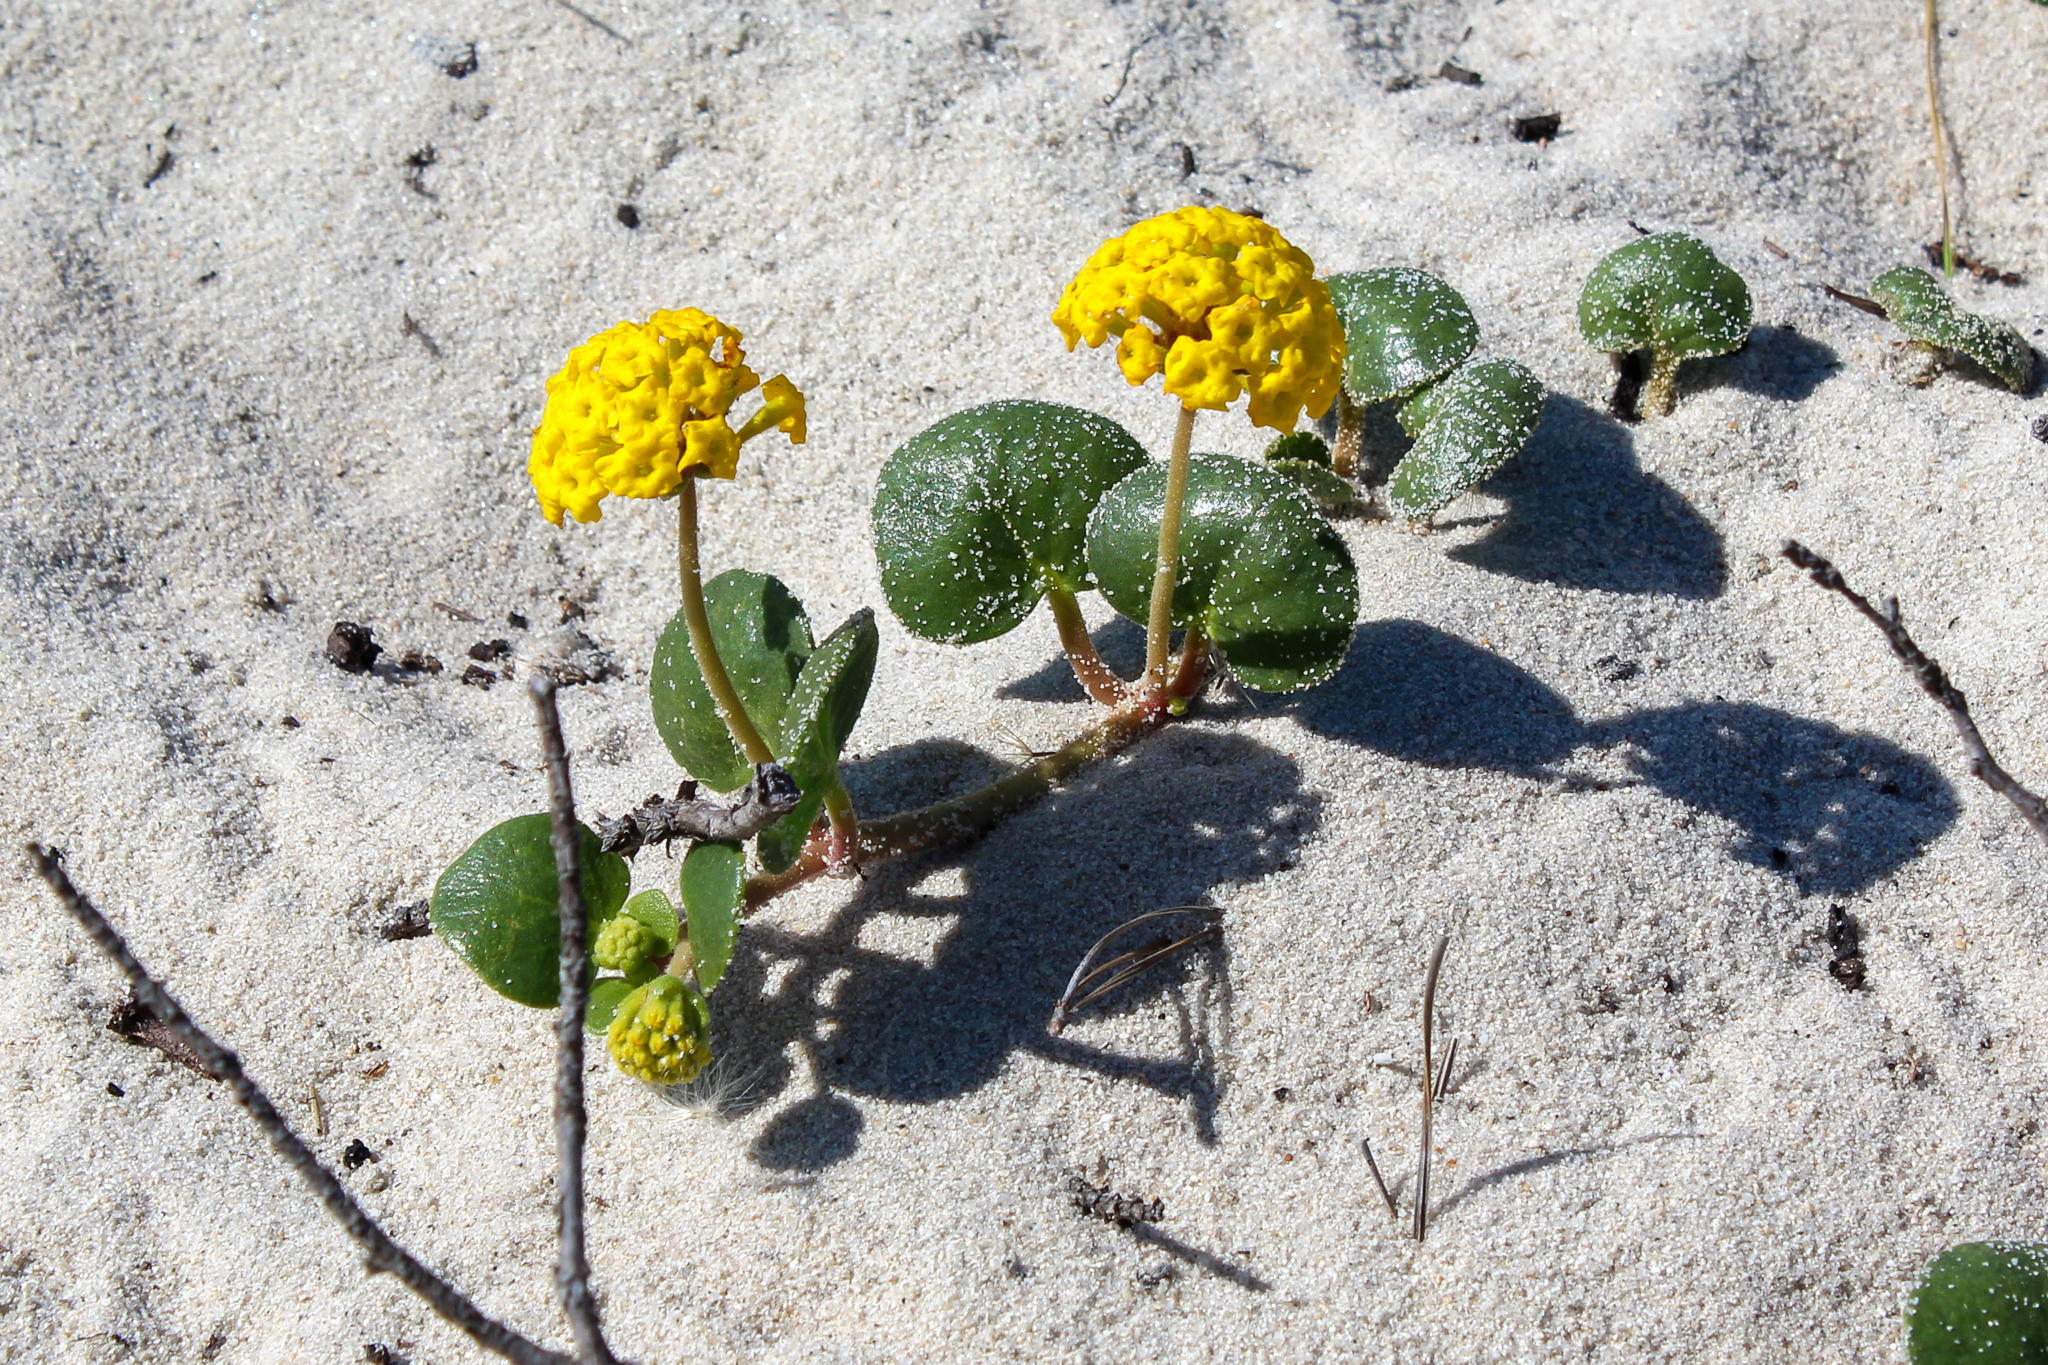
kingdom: Plantae
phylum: Tracheophyta
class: Magnoliopsida
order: Caryophyllales
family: Nyctaginaceae
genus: Abronia
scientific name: Abronia latifolia
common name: Yellow sand-verbena
